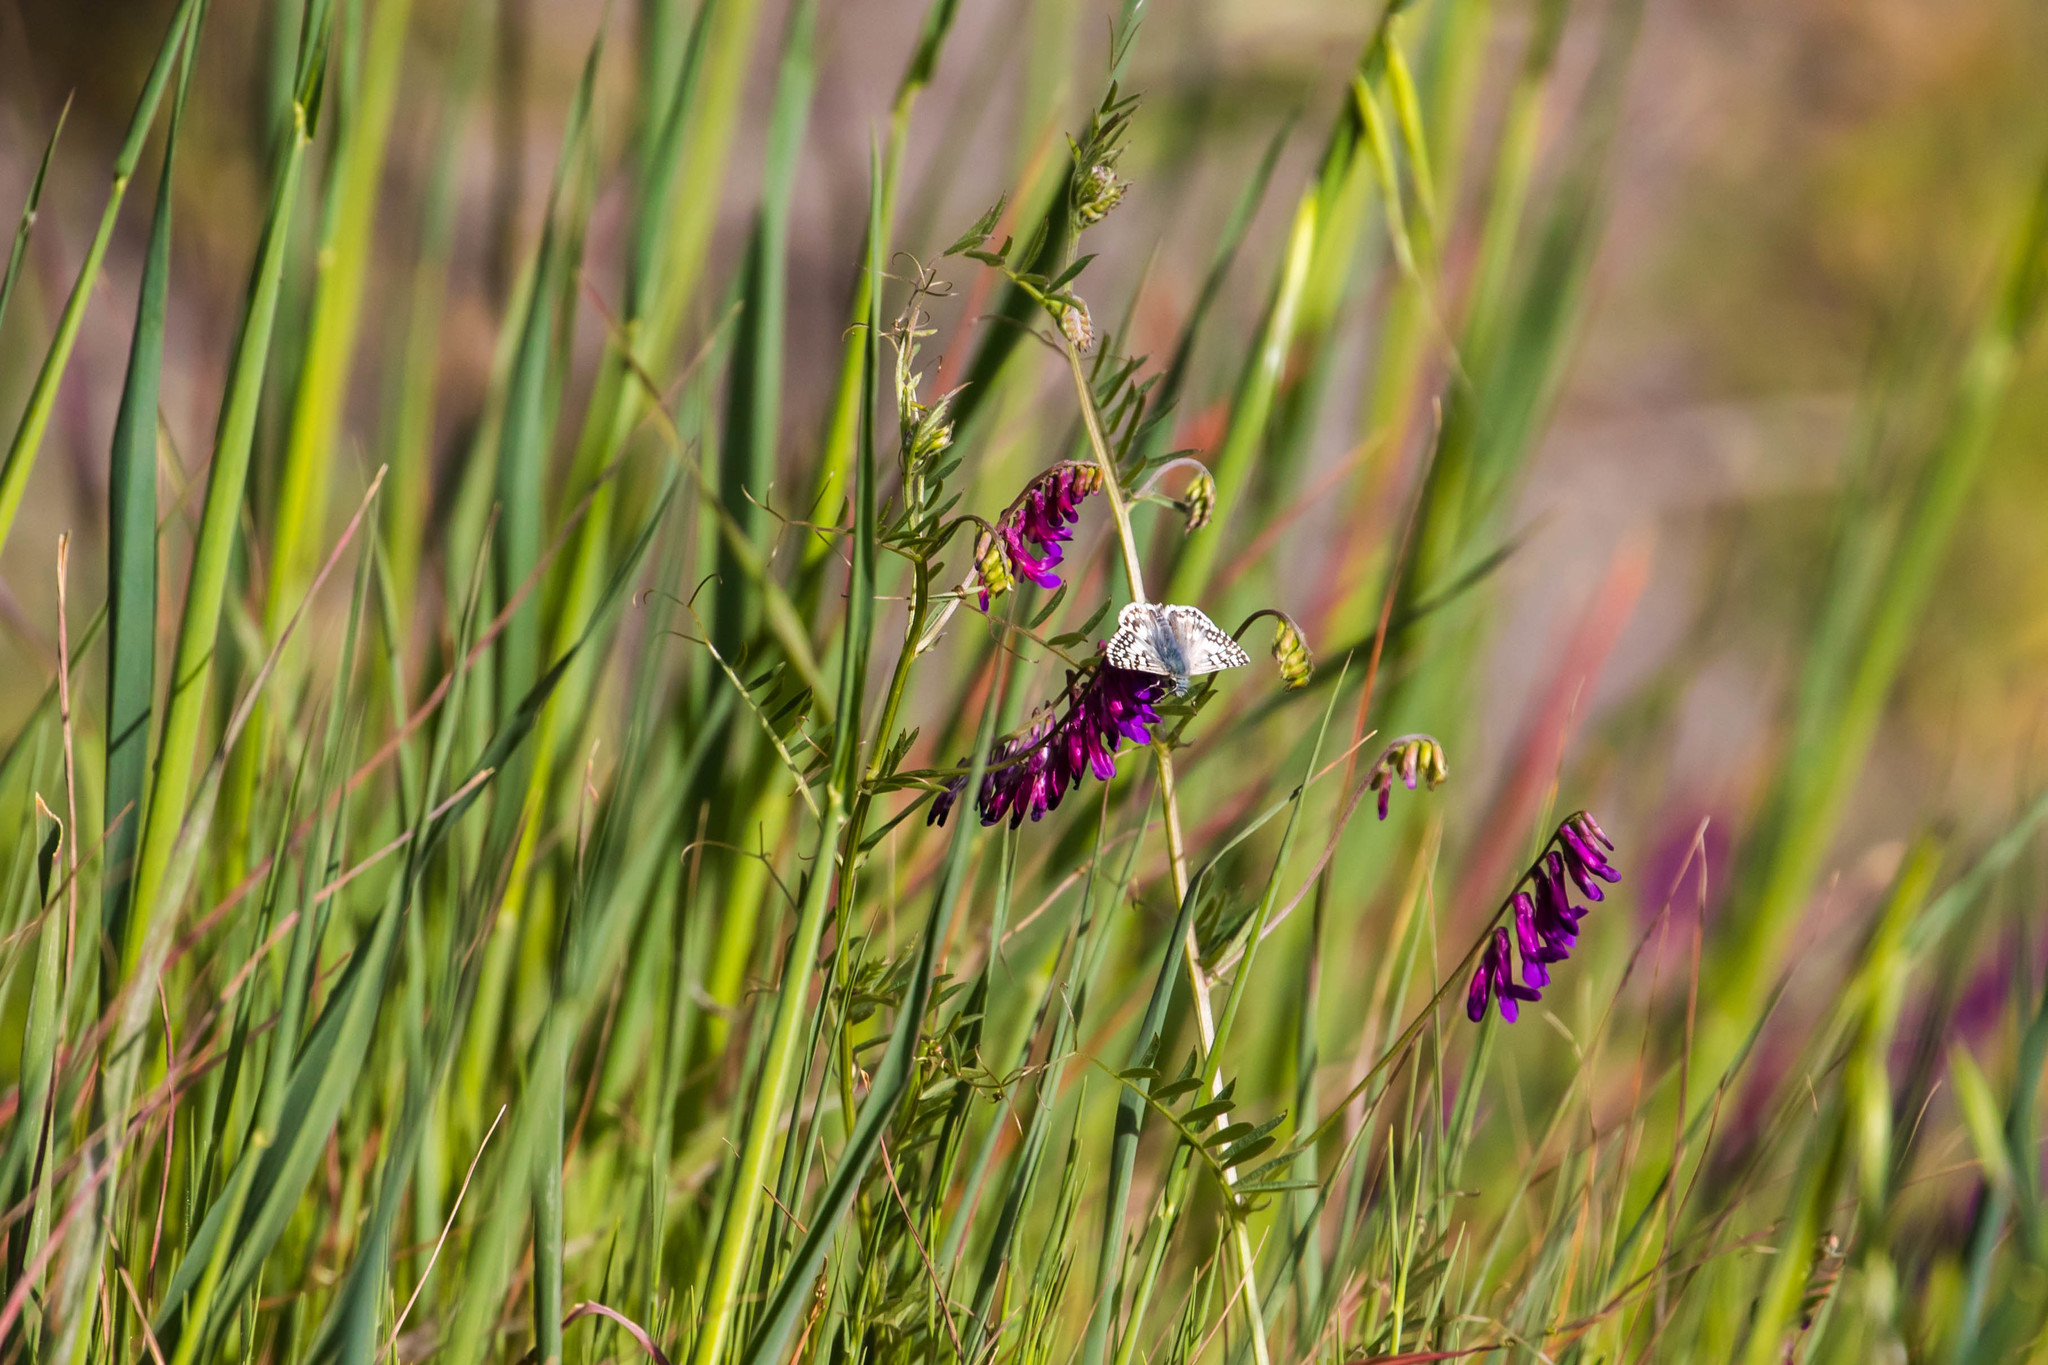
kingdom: Animalia
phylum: Arthropoda
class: Insecta
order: Lepidoptera
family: Hesperiidae
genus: Burnsius
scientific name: Burnsius communis
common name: Common checkered-skipper
